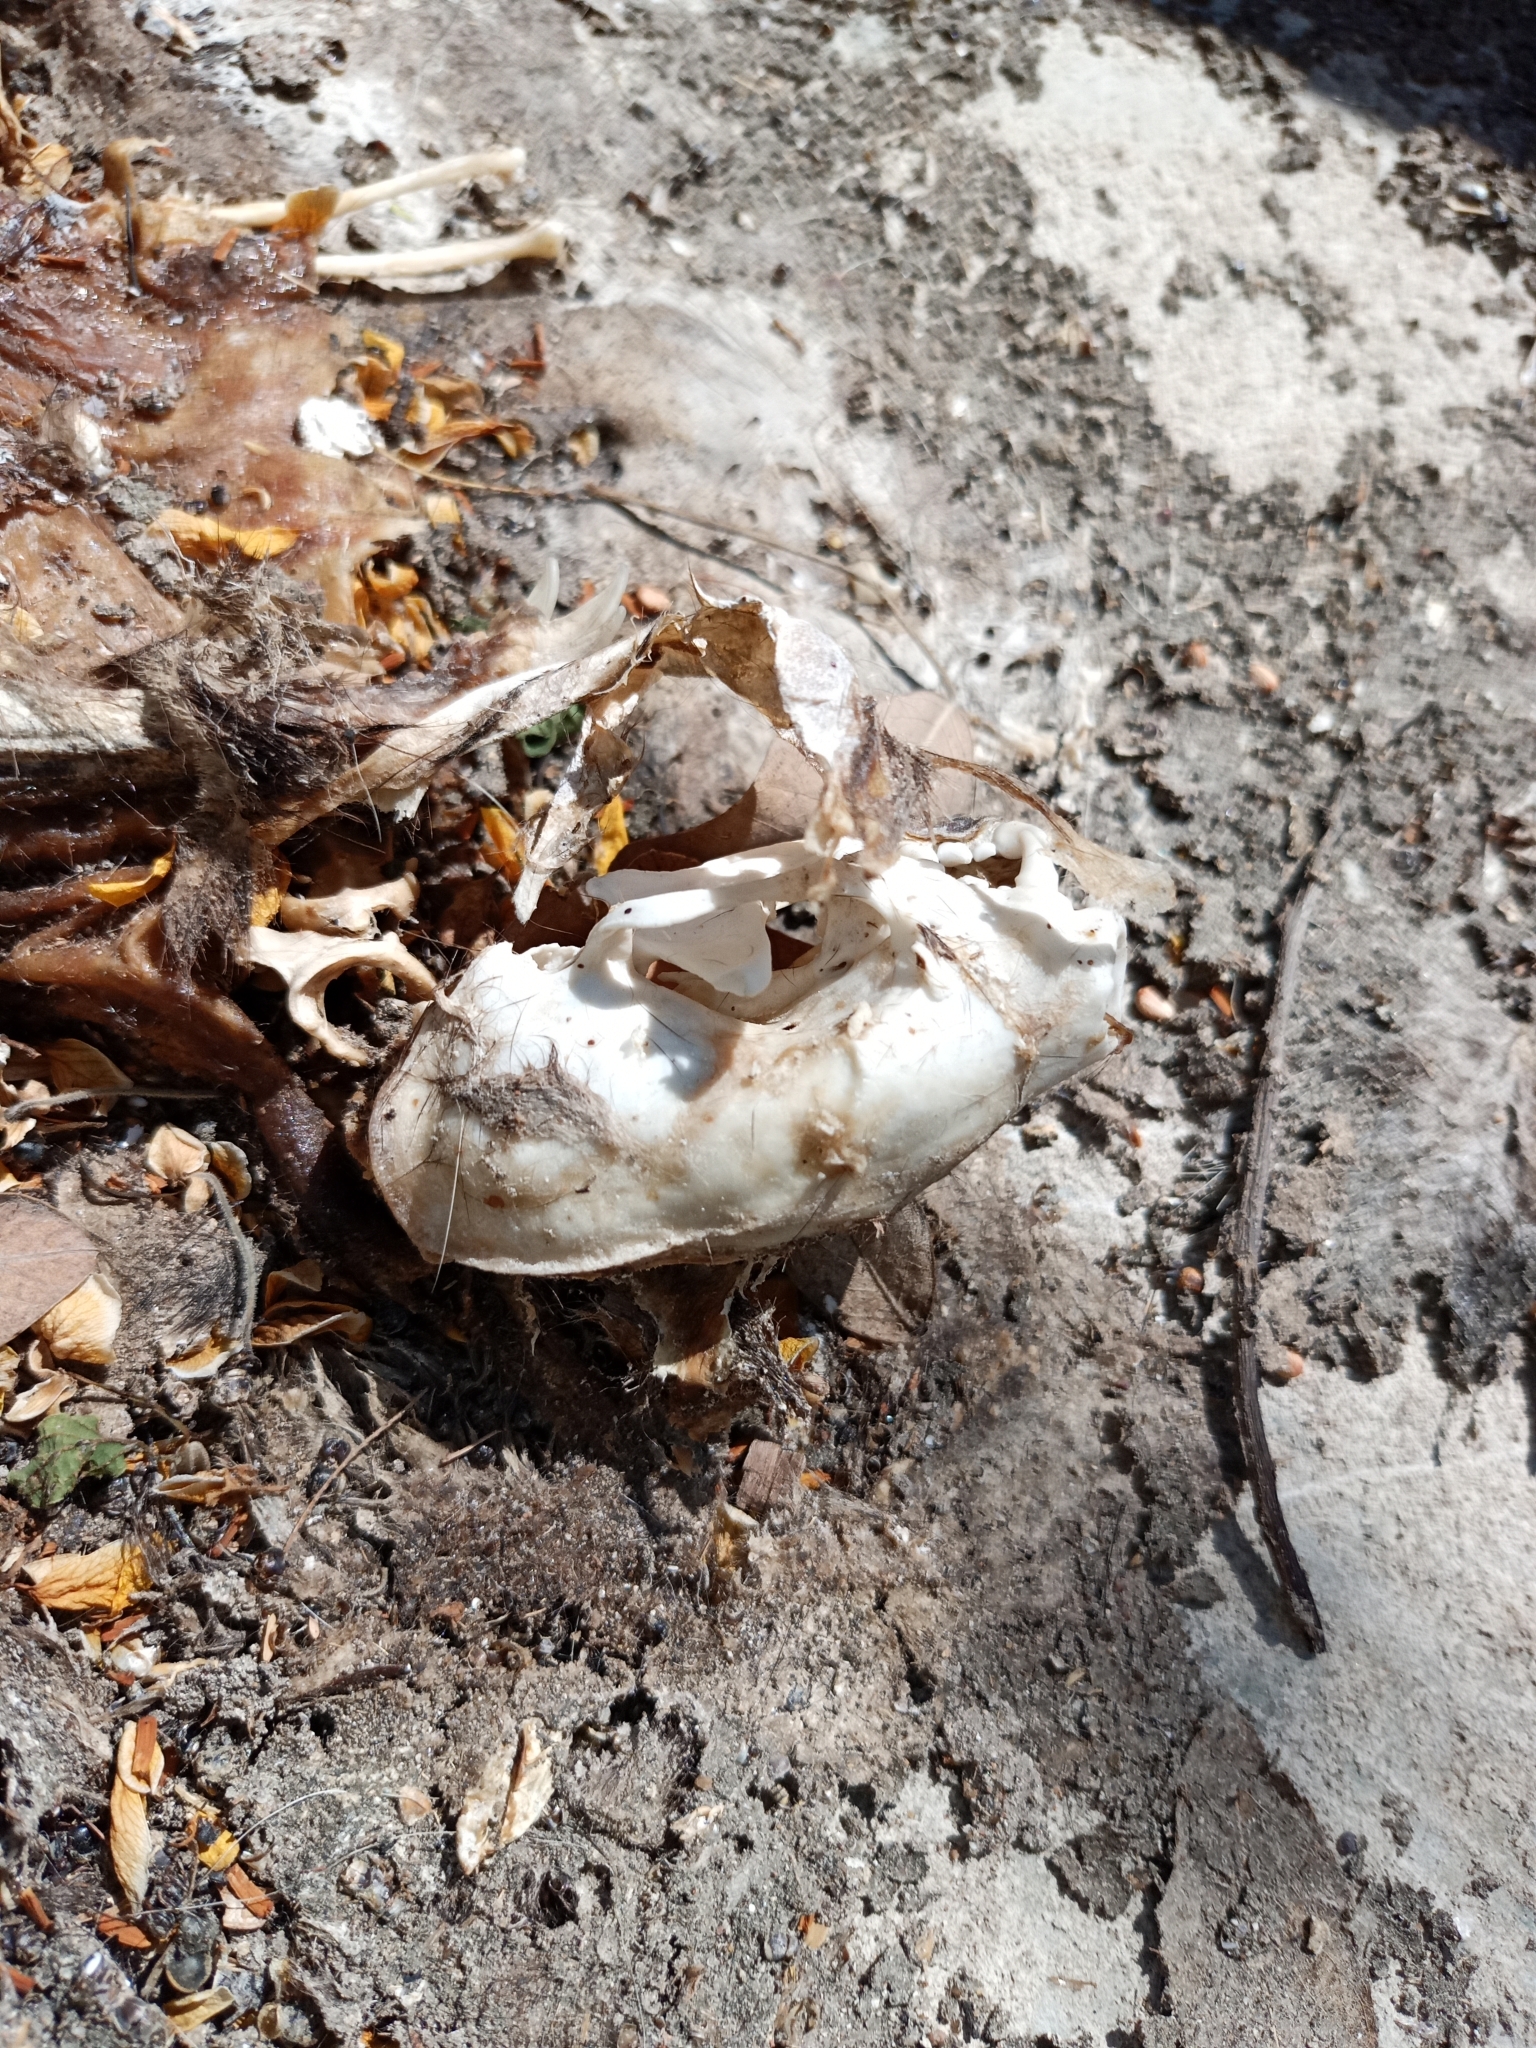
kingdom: Animalia
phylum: Chordata
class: Mammalia
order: Carnivora
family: Mephitidae
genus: Conepatus
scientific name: Conepatus leuconotus
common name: Eastern hog-nosed skunk
